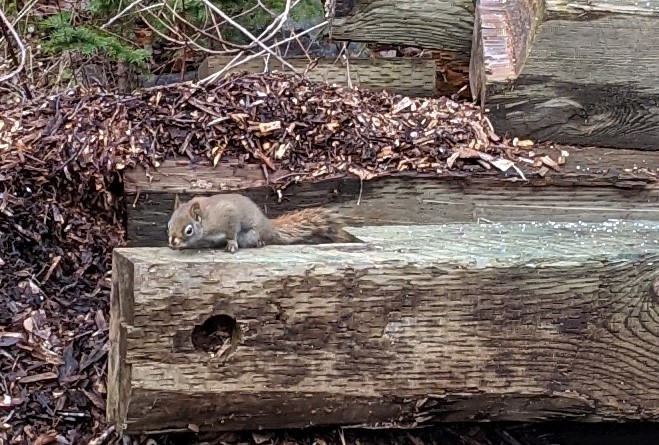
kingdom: Animalia
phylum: Chordata
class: Mammalia
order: Rodentia
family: Sciuridae
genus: Tamiasciurus
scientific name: Tamiasciurus hudsonicus
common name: Red squirrel
